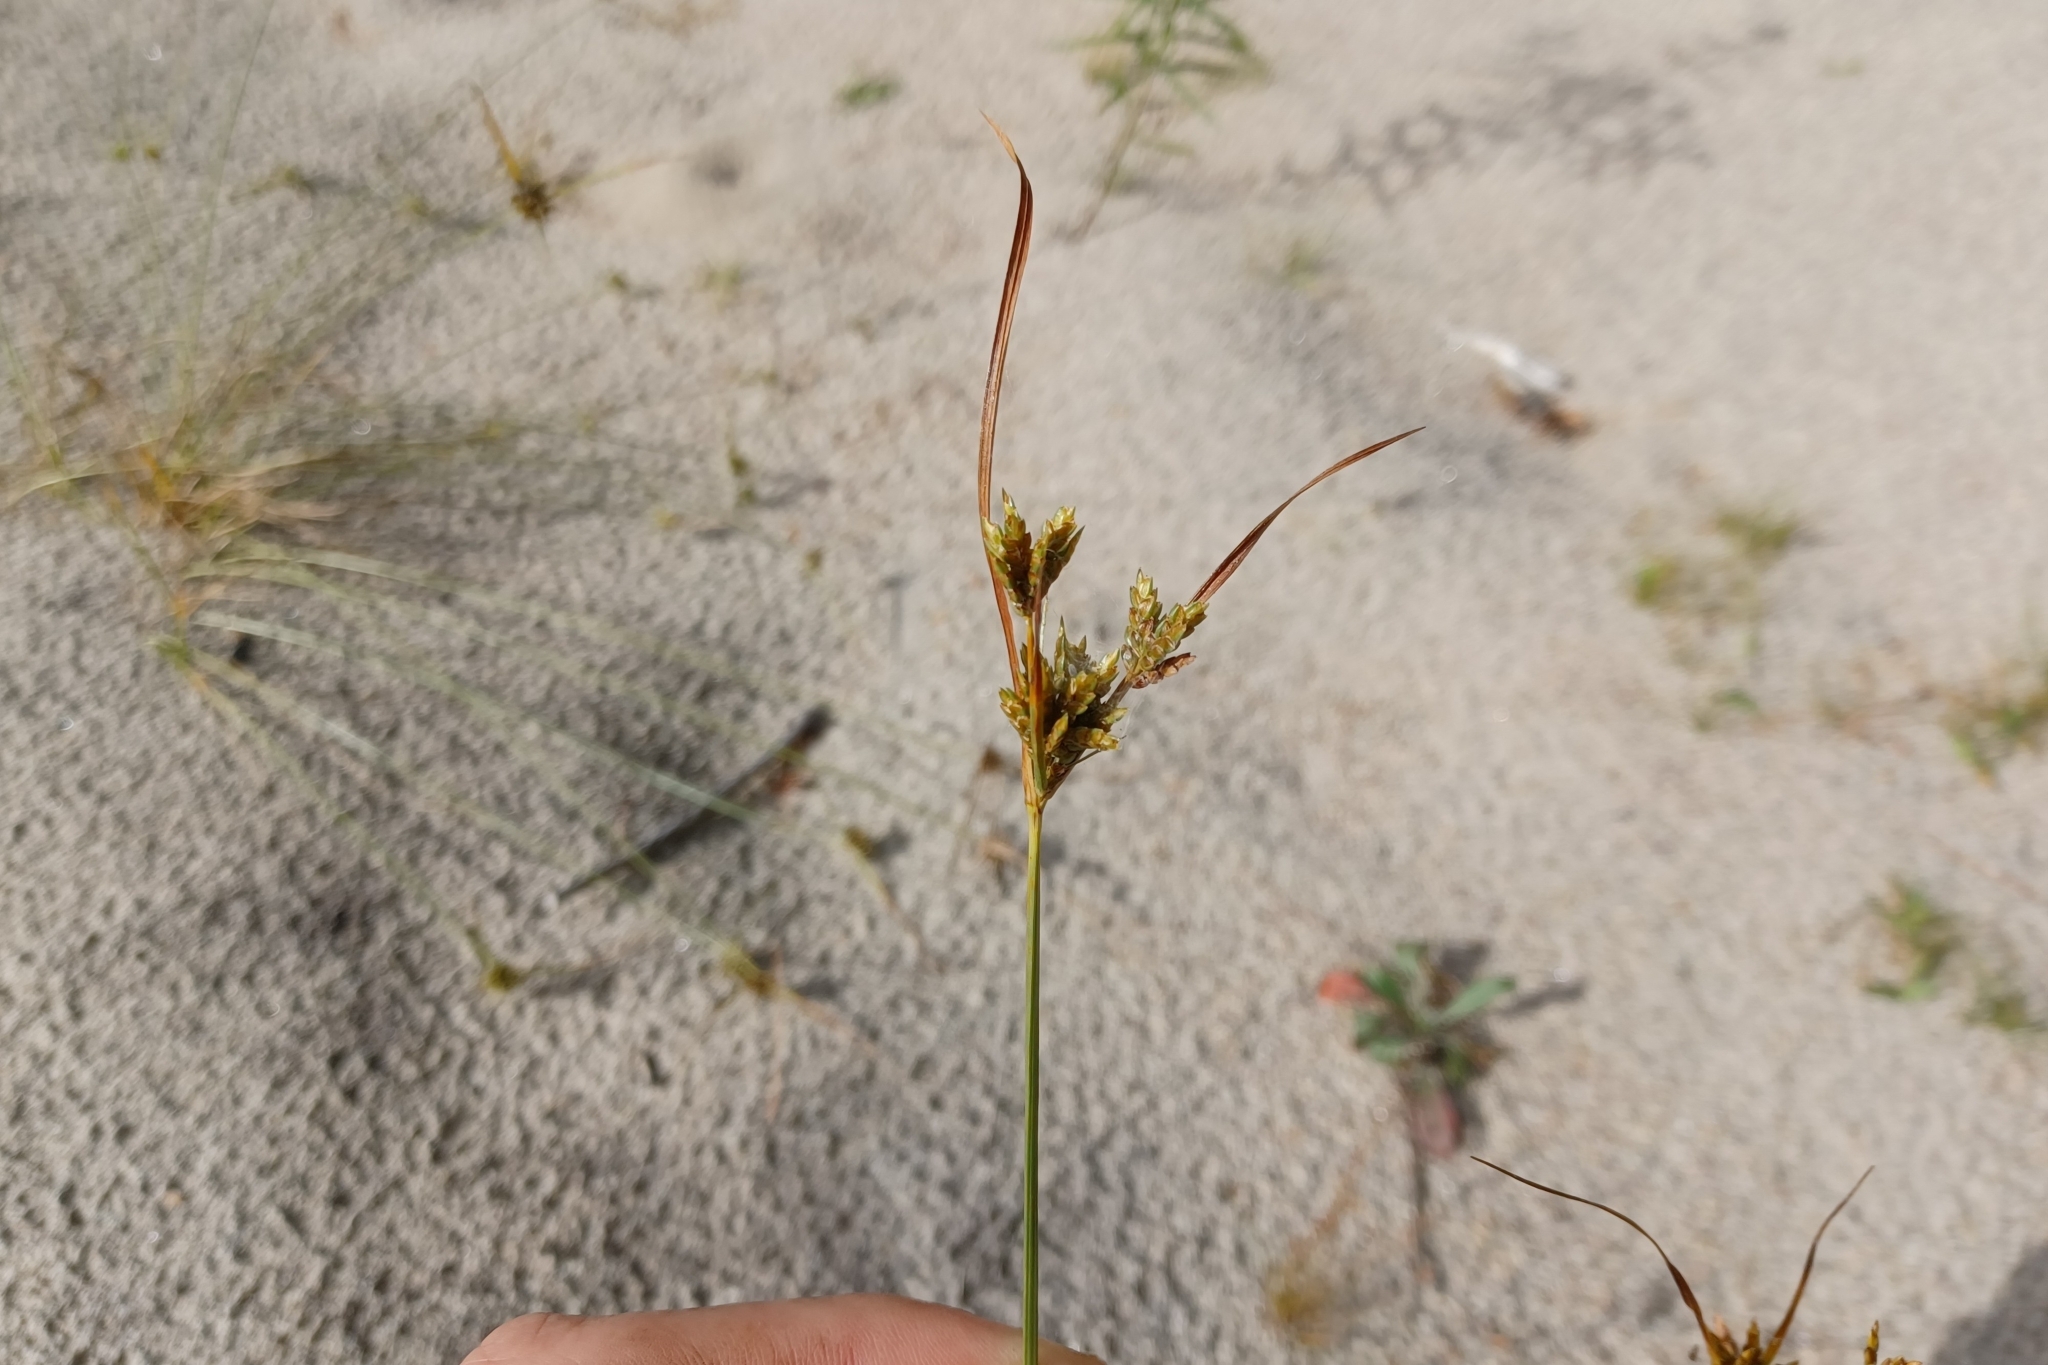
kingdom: Plantae
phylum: Tracheophyta
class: Liliopsida
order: Poales
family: Cyperaceae
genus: Cyperus
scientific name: Cyperus houghtonii
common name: Houghton's cyperus
